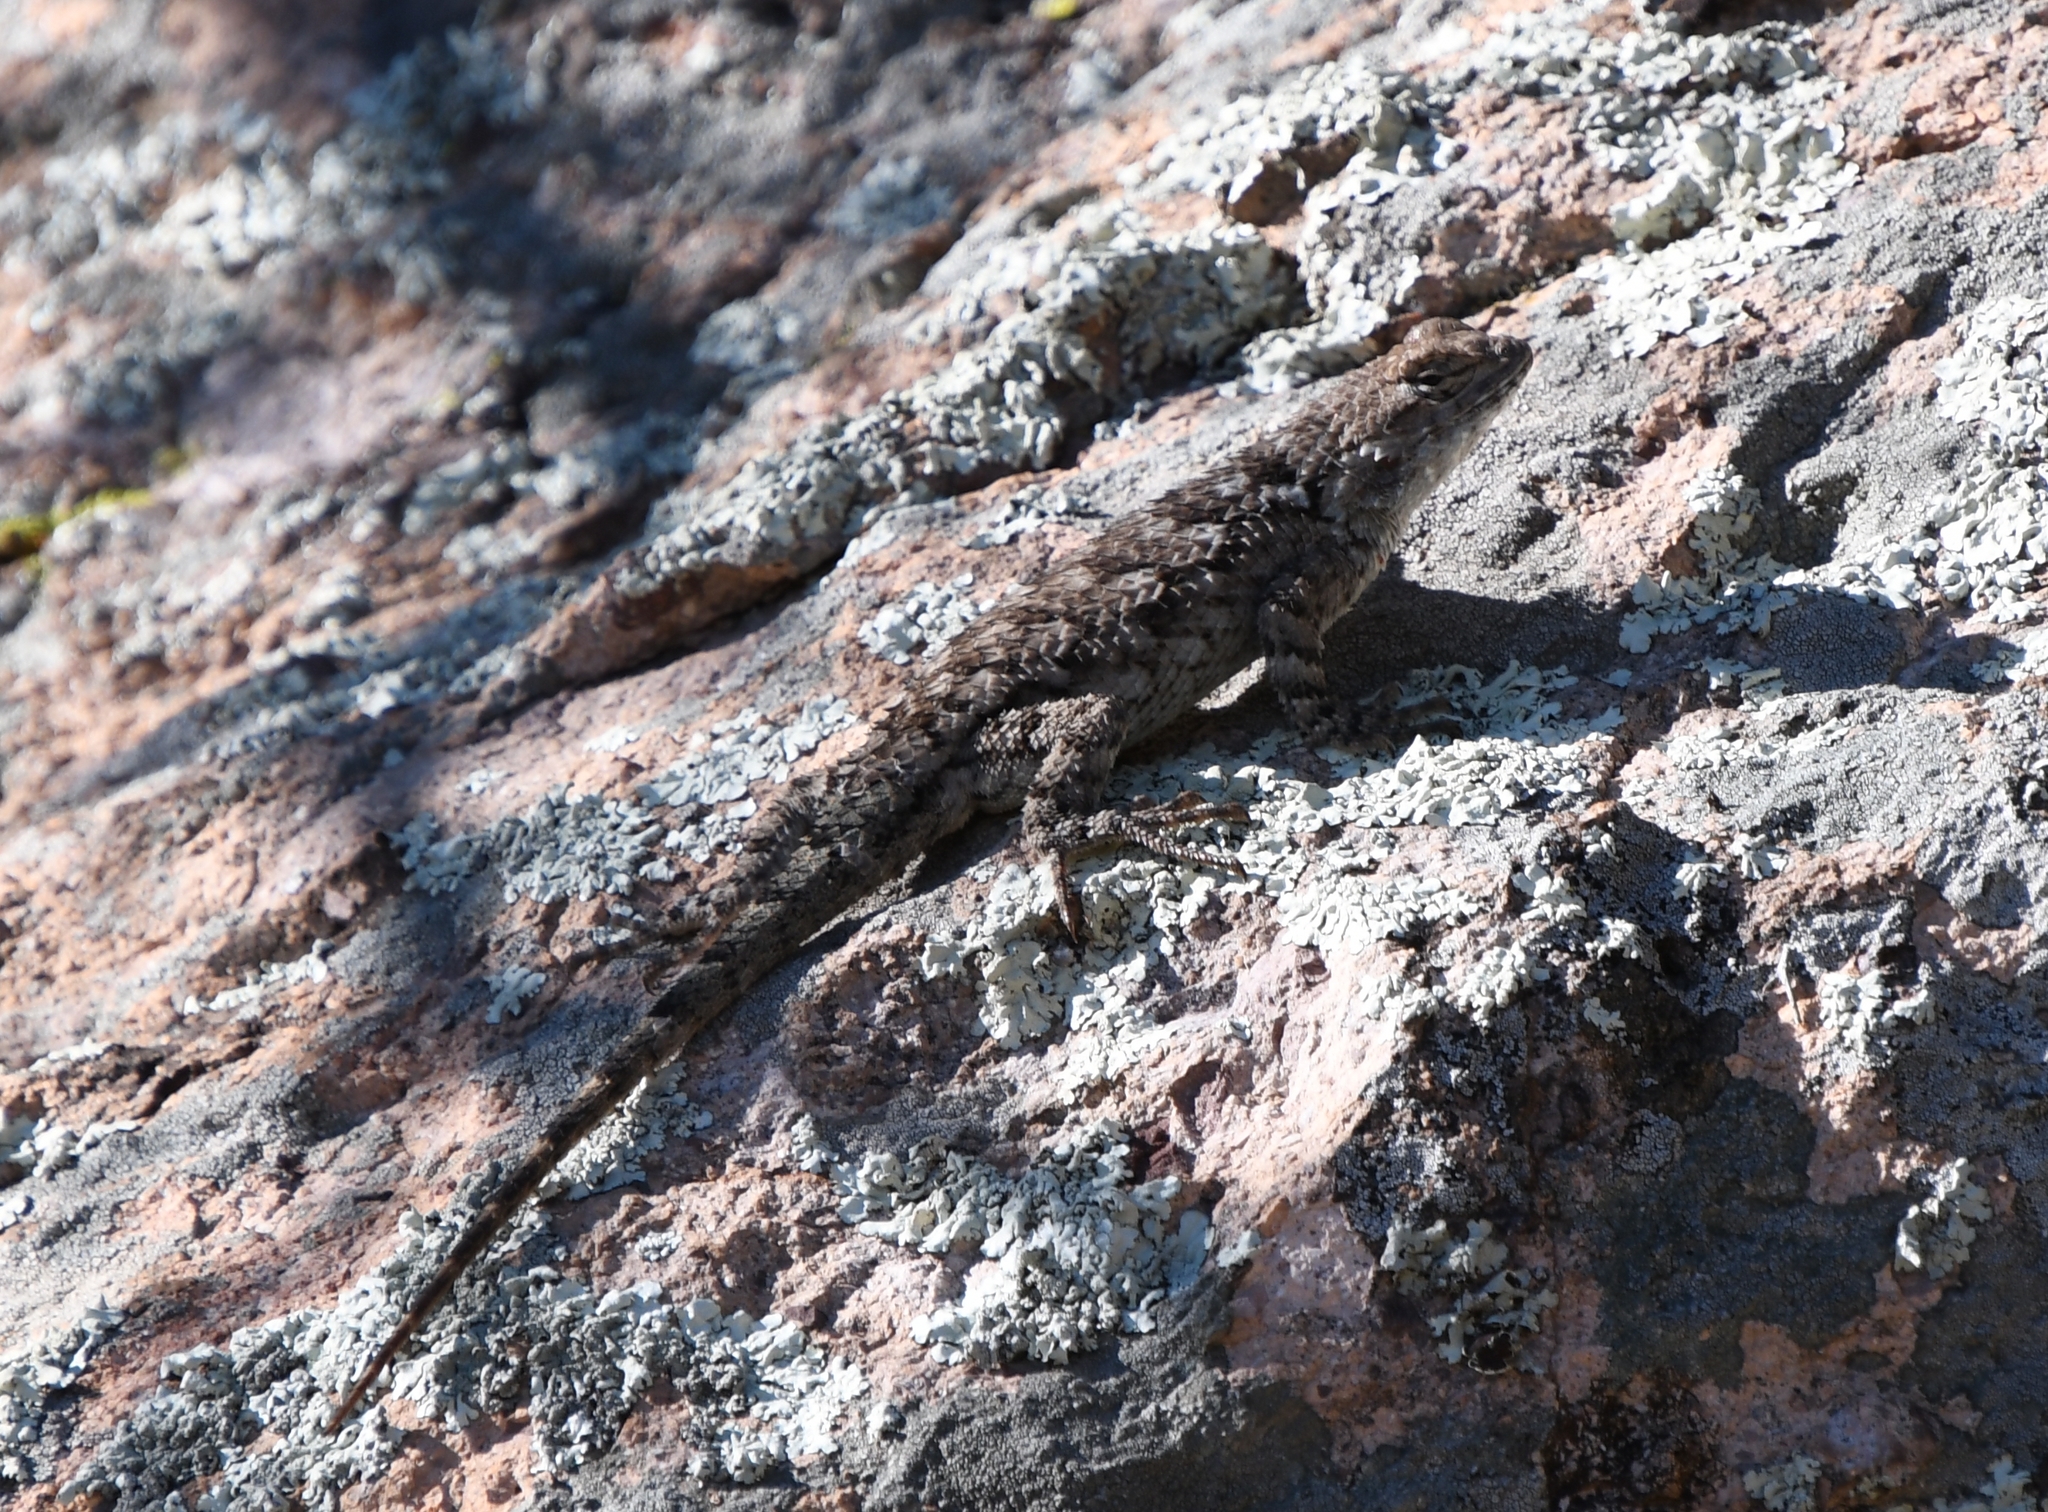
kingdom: Animalia
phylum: Chordata
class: Squamata
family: Phrynosomatidae
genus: Sceloporus
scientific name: Sceloporus clarkii
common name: Clark's spiny lizard
